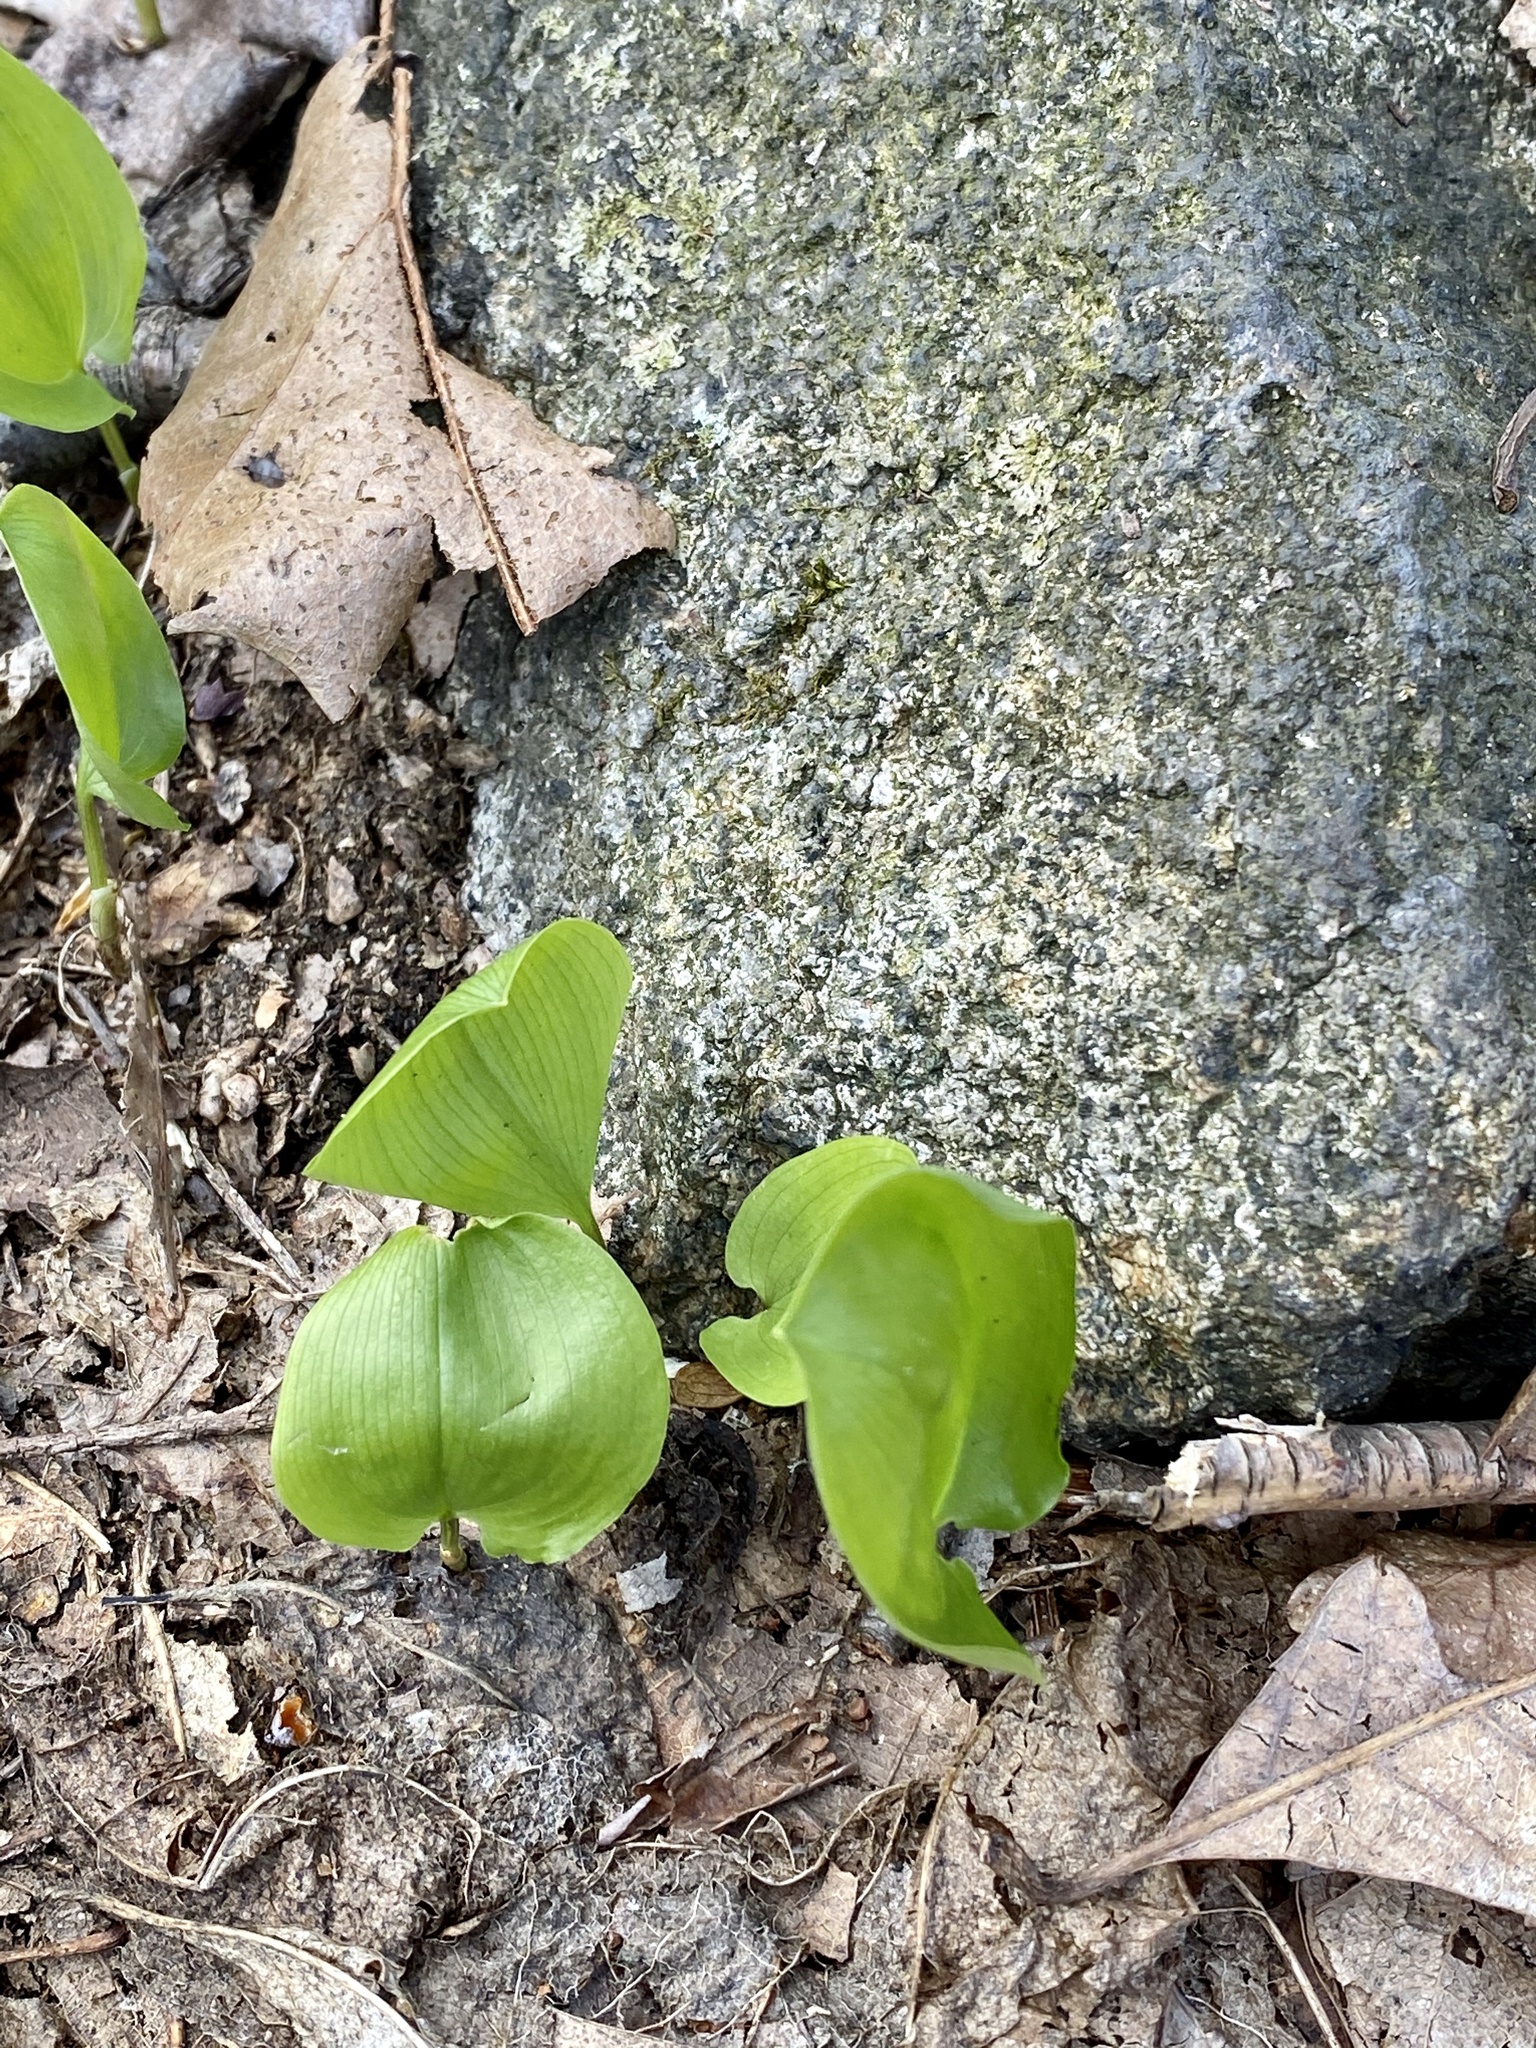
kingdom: Plantae
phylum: Tracheophyta
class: Liliopsida
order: Asparagales
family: Asparagaceae
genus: Maianthemum
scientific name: Maianthemum canadense
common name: False lily-of-the-valley
